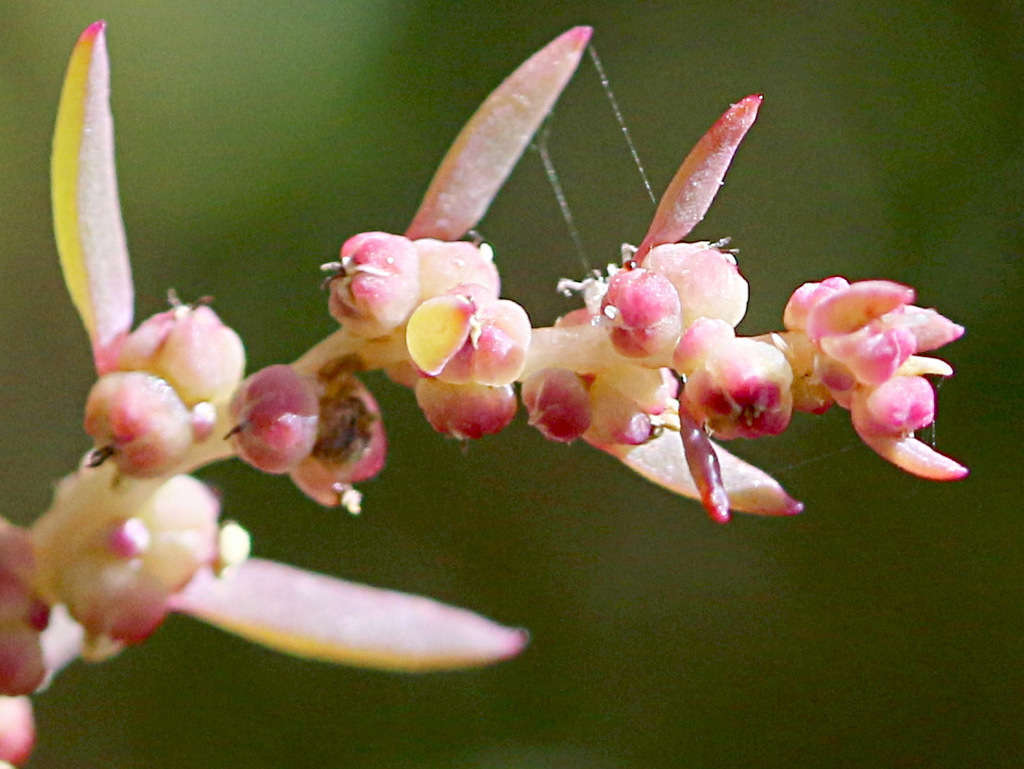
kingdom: Plantae
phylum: Tracheophyta
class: Magnoliopsida
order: Caryophyllales
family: Amaranthaceae
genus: Suaeda
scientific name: Suaeda australis
